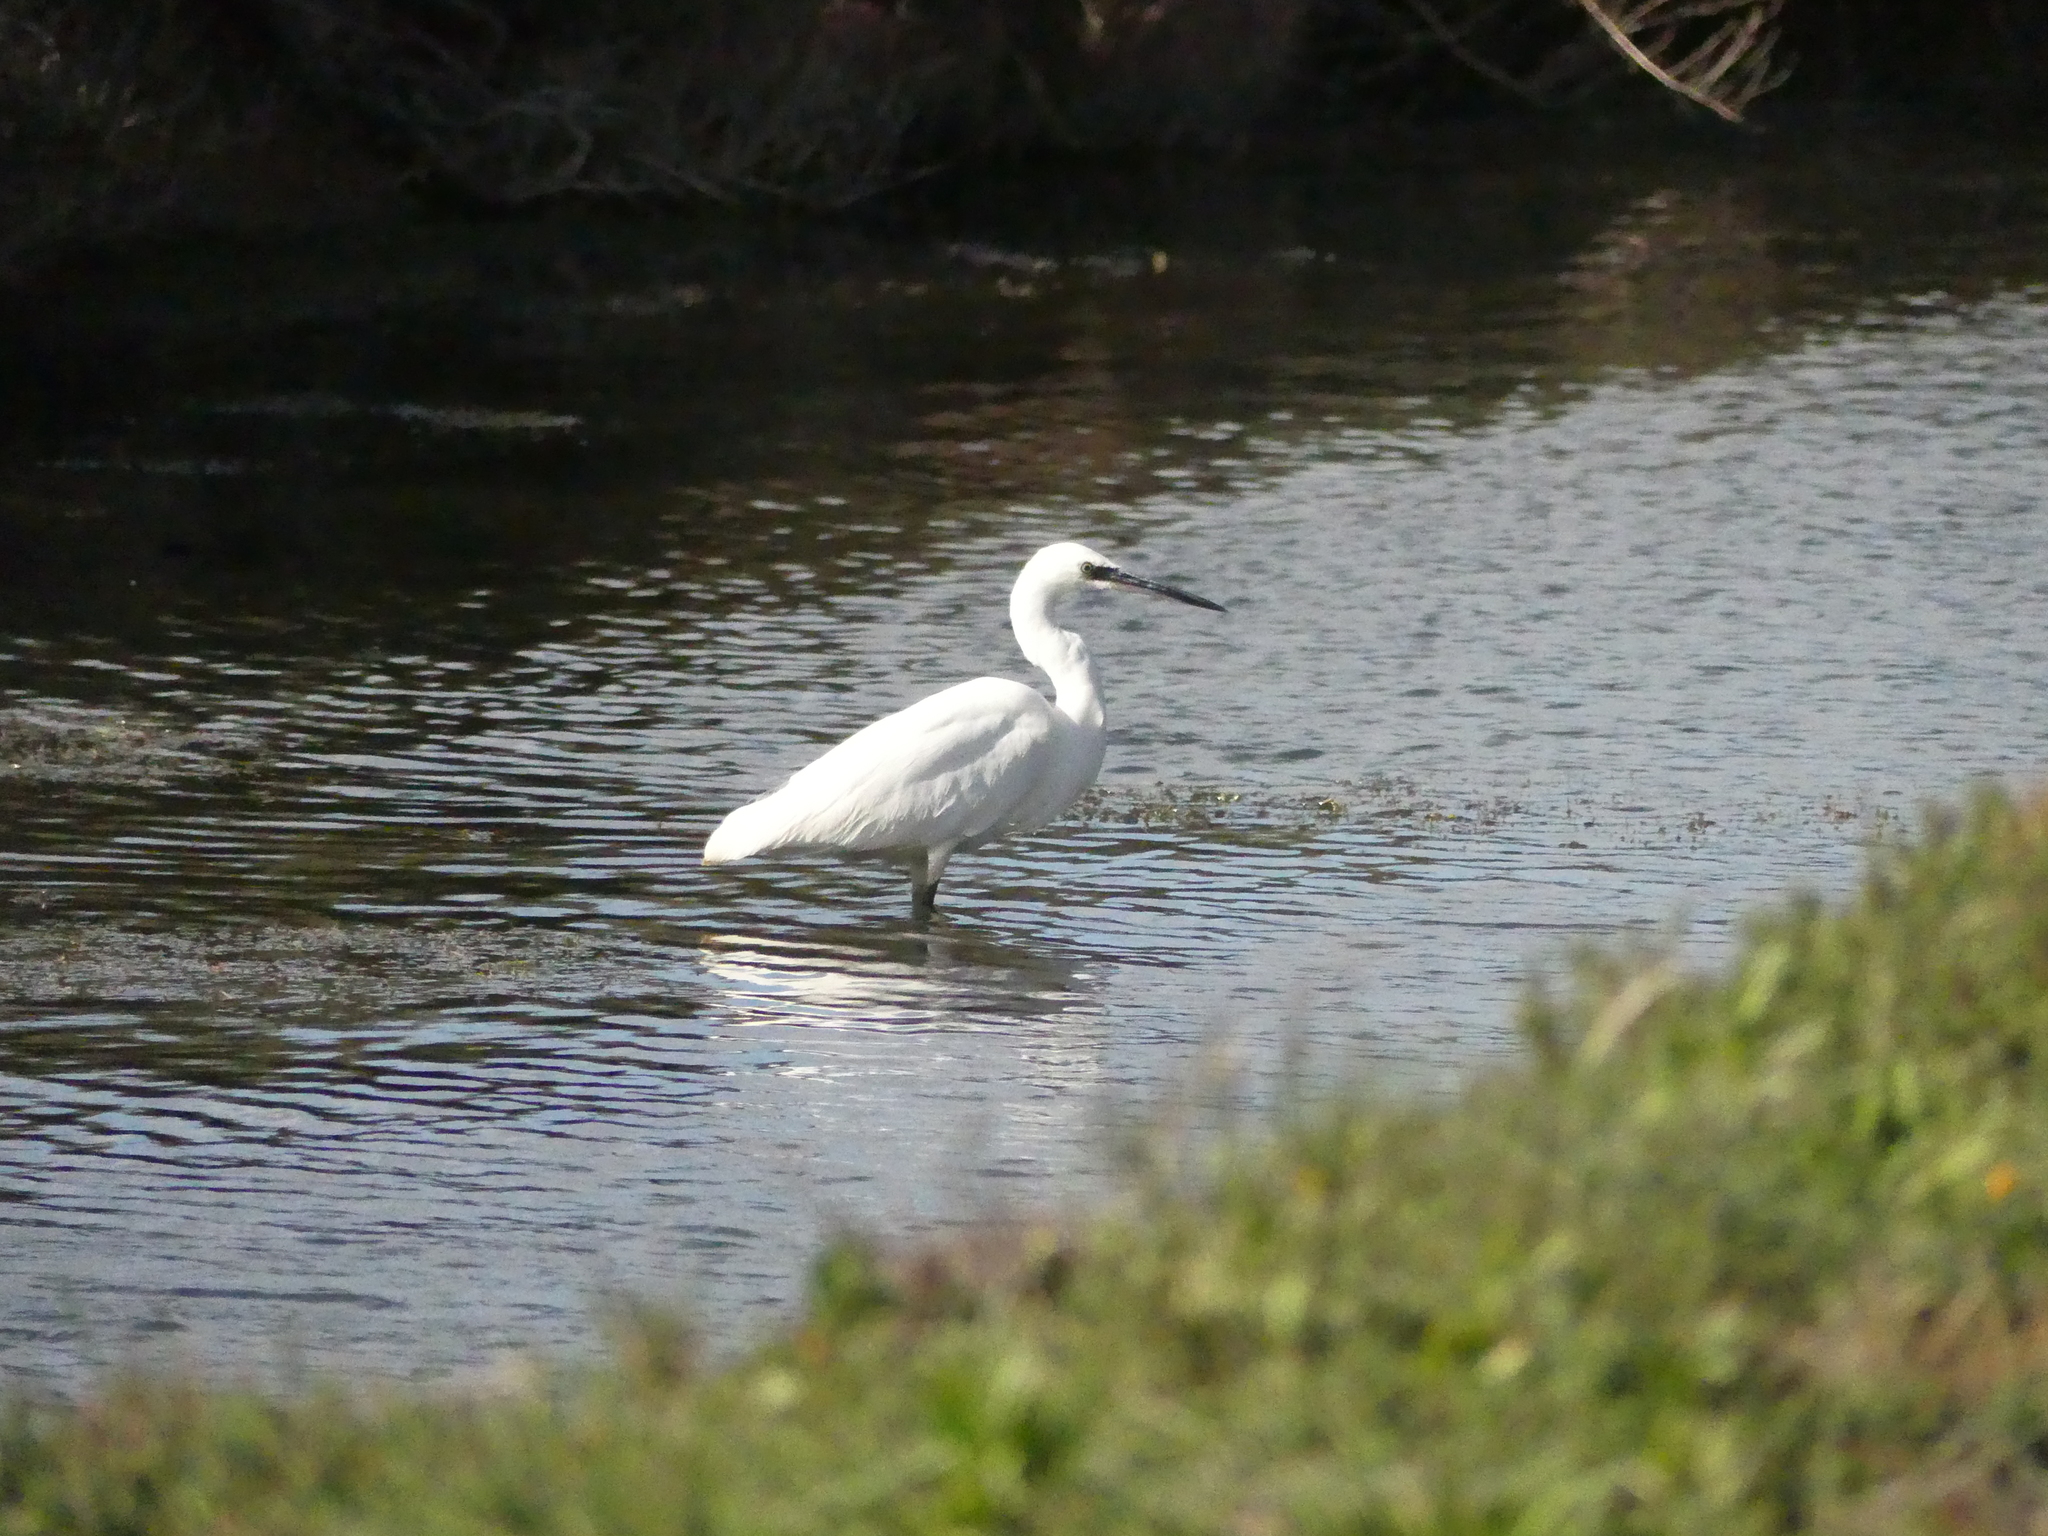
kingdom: Animalia
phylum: Chordata
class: Aves
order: Pelecaniformes
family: Ardeidae
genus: Egretta
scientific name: Egretta garzetta
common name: Little egret
